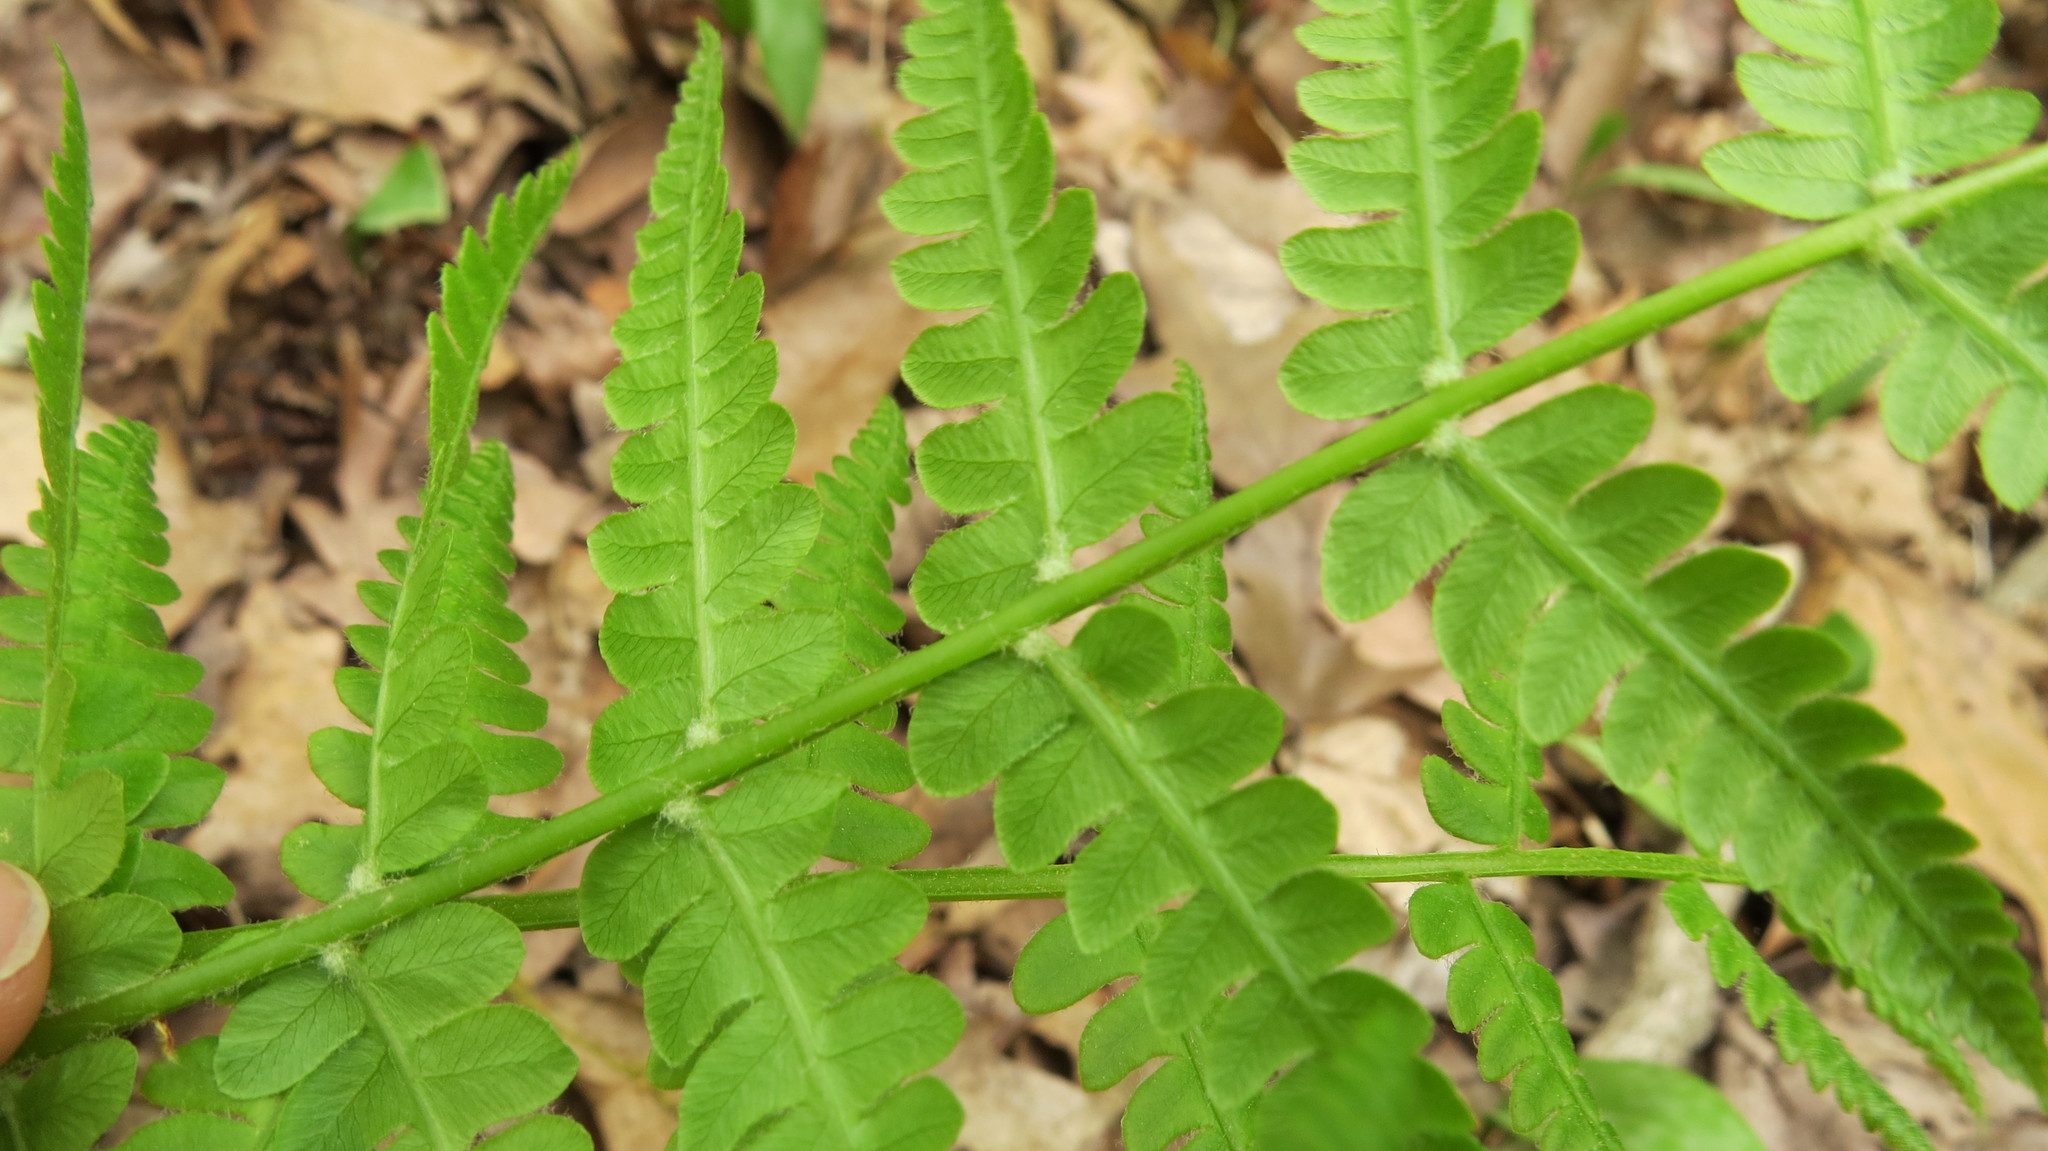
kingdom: Plantae
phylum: Tracheophyta
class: Polypodiopsida
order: Osmundales
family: Osmundaceae
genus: Osmundastrum
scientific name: Osmundastrum cinnamomeum
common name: Cinnamon fern
